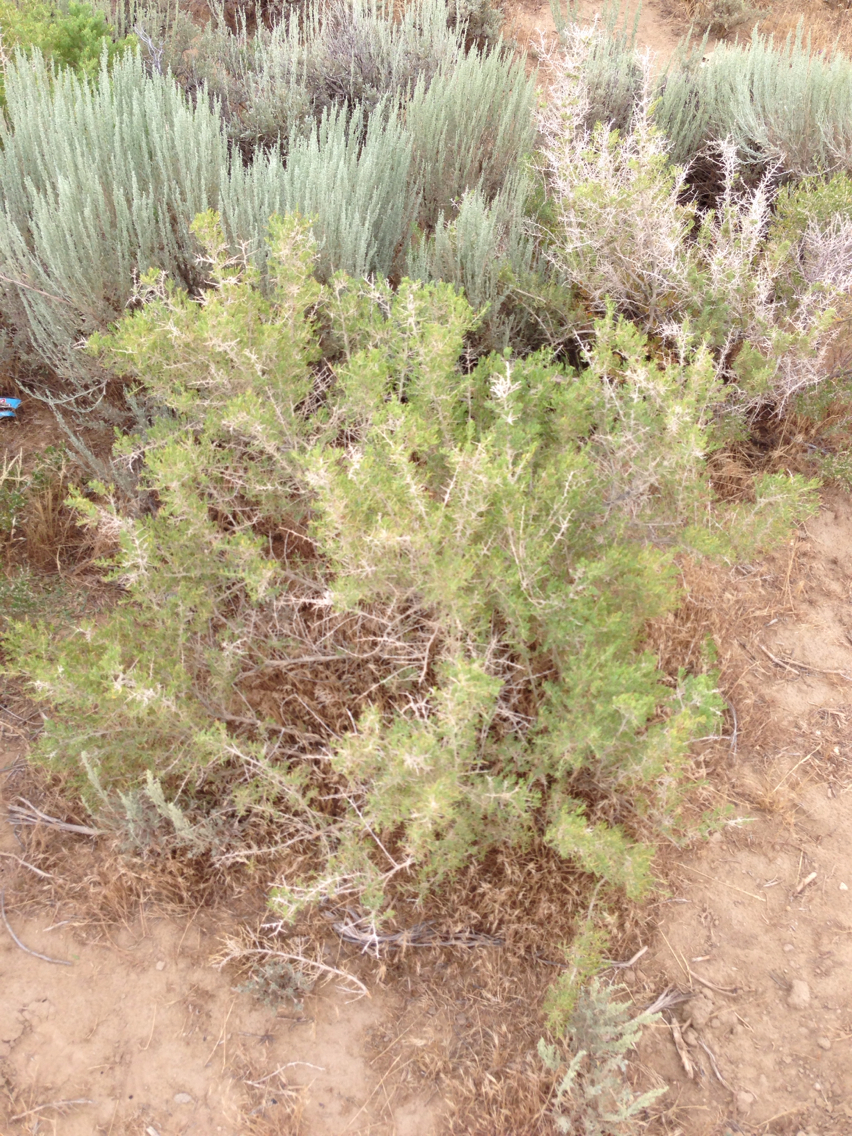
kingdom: Plantae
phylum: Tracheophyta
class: Magnoliopsida
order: Caryophyllales
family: Sarcobataceae
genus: Sarcobatus
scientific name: Sarcobatus vermiculatus
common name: Greasewood
